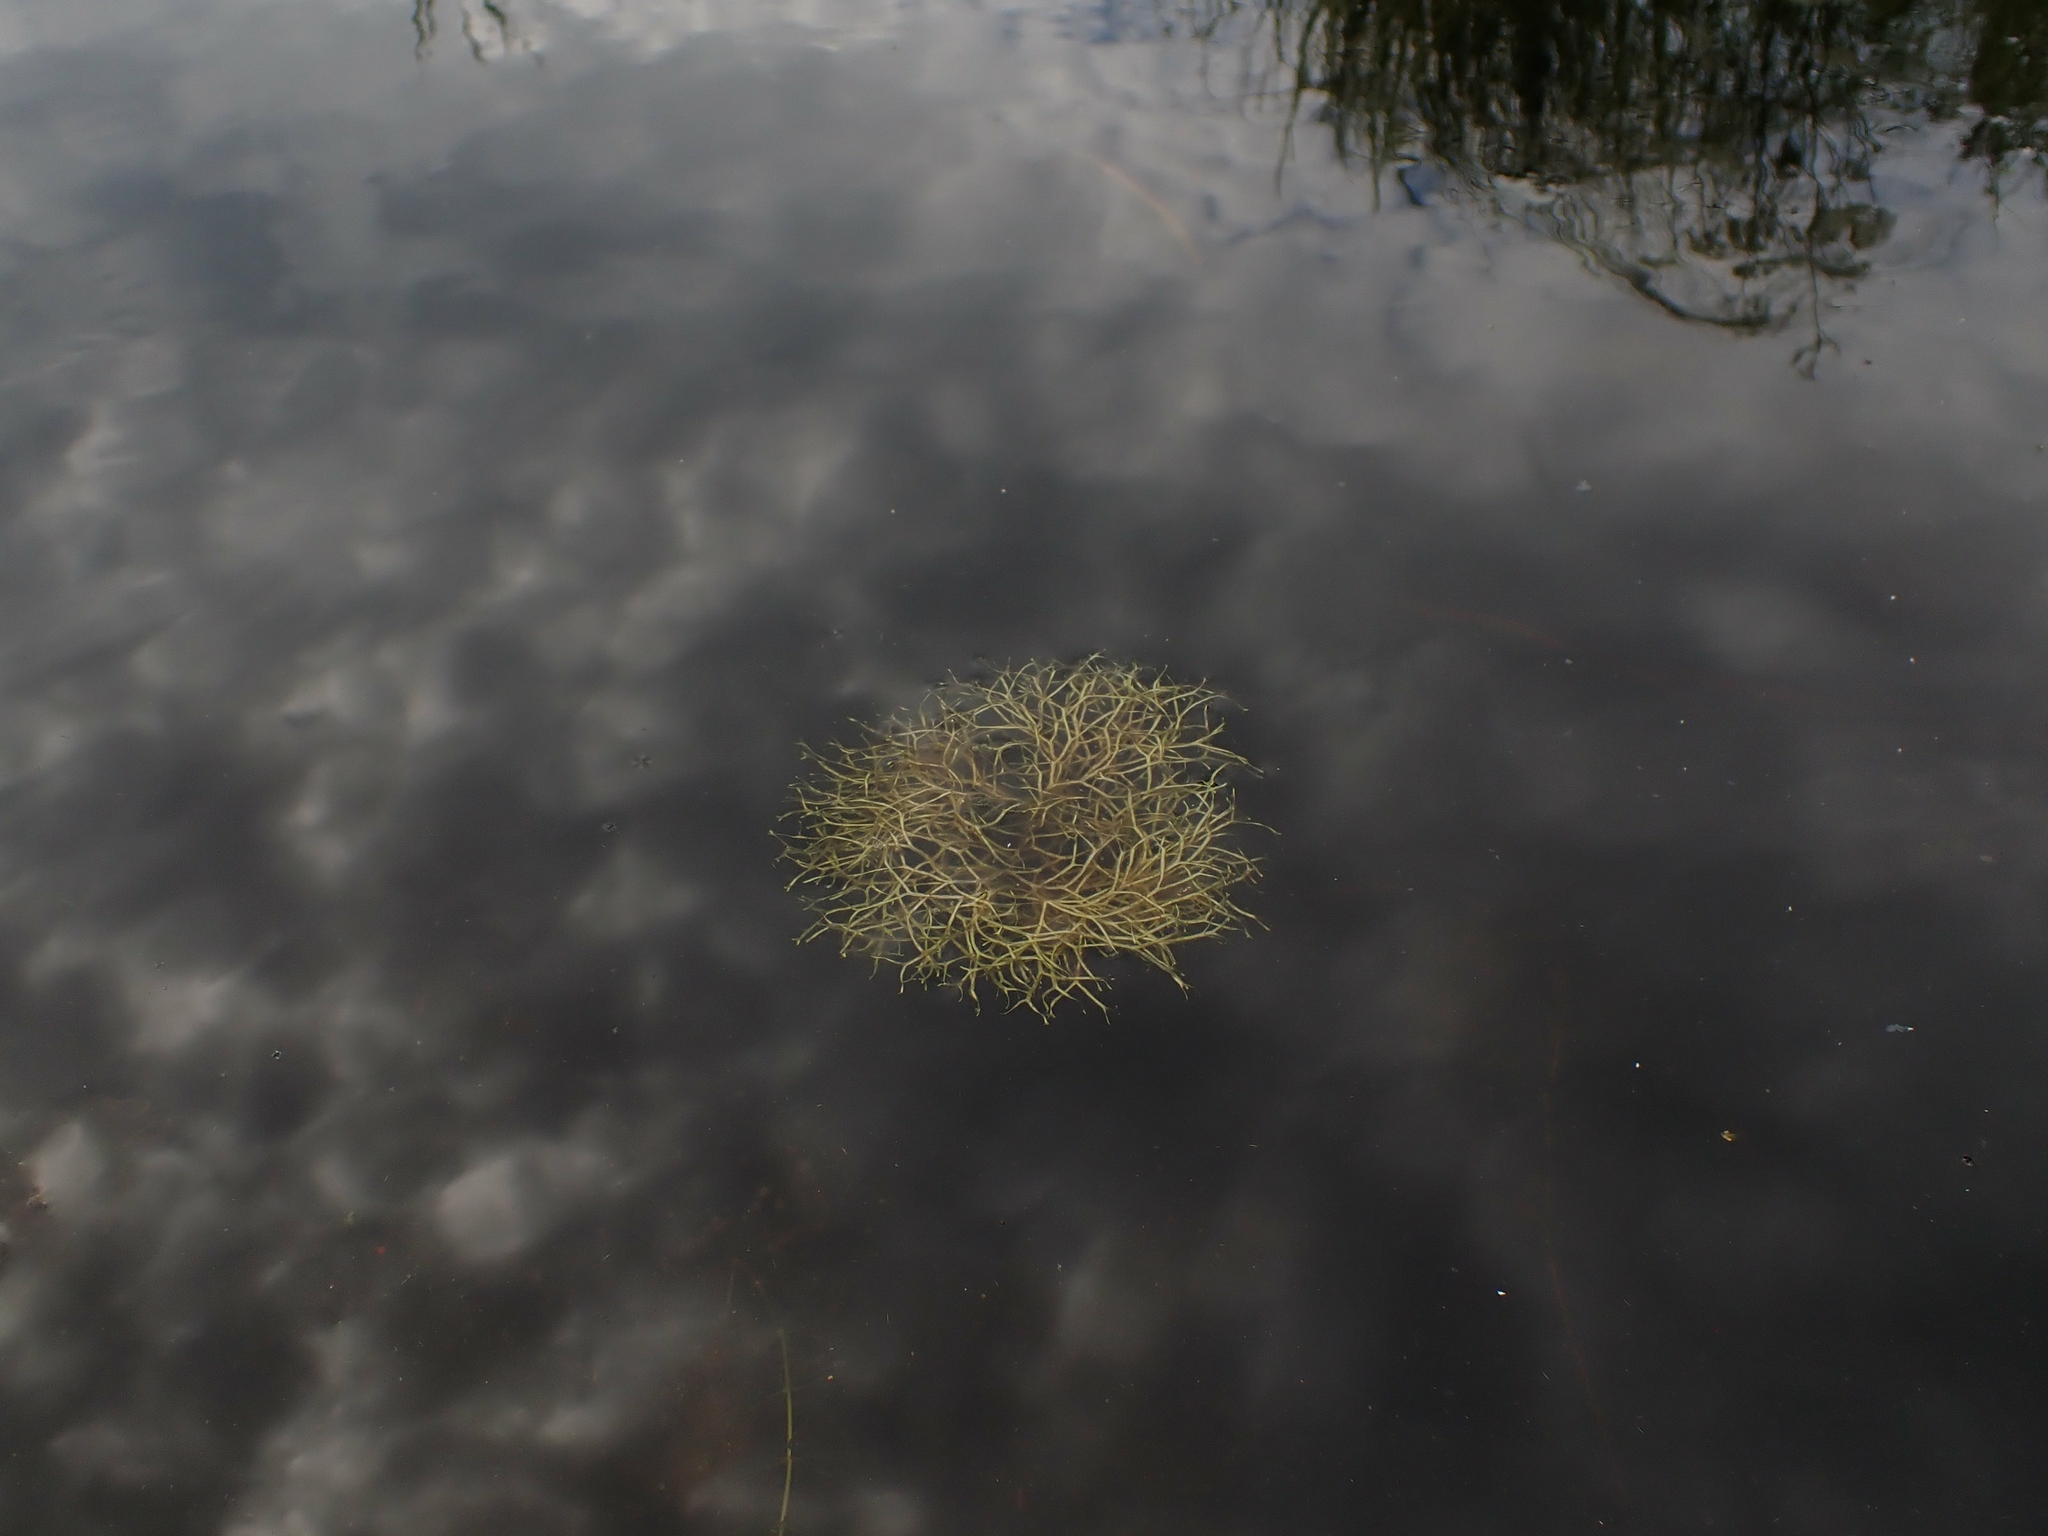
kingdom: Plantae
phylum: Marchantiophyta
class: Marchantiopsida
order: Marchantiales
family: Ricciaceae
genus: Riccia
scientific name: Riccia fluitans
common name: Floating crystalwort
